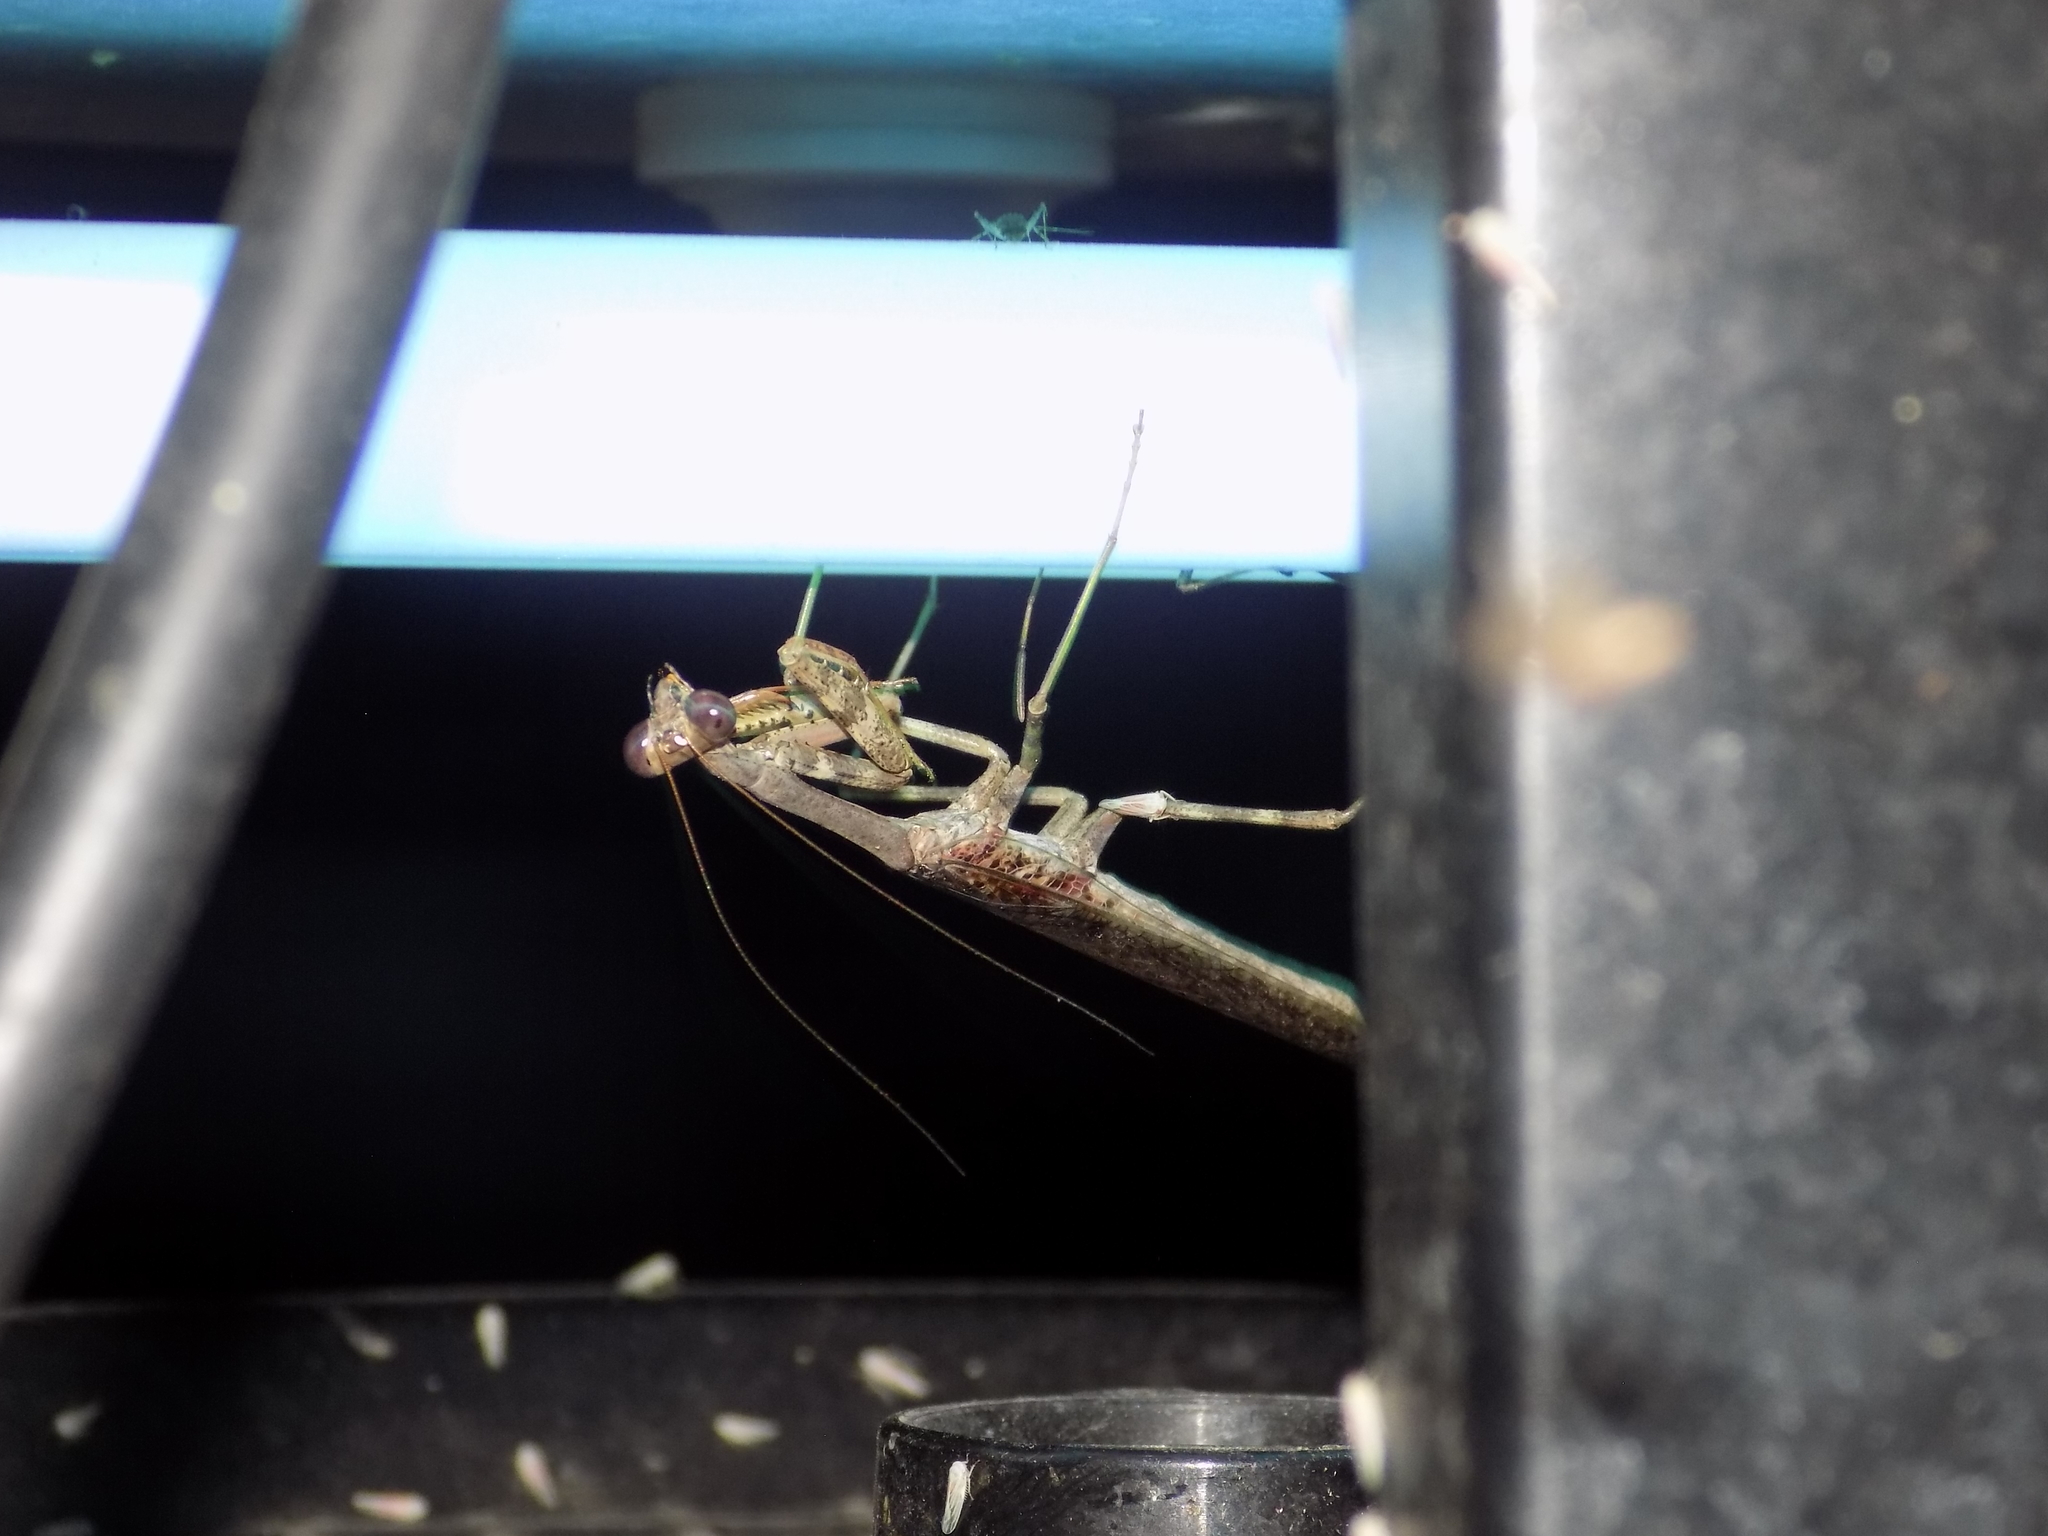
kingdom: Animalia
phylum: Arthropoda
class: Insecta
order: Mantodea
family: Mantidae
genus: Stagmomantis
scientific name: Stagmomantis carolina
